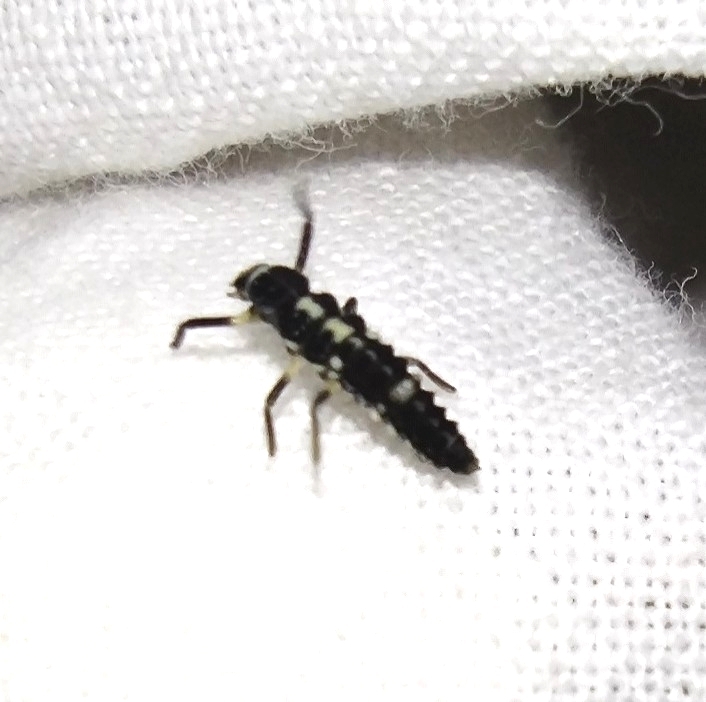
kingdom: Animalia
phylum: Arthropoda
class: Insecta
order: Coleoptera
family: Coccinellidae
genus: Propylaea
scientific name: Propylaea quatuordecimpunctata
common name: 14-spotted ladybird beetle
